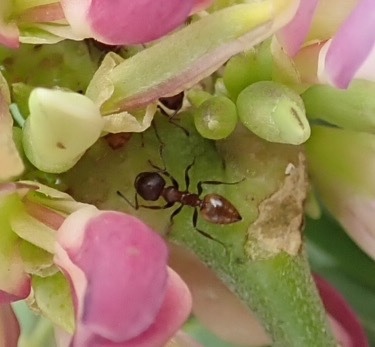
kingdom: Animalia
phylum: Arthropoda
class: Insecta
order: Hymenoptera
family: Formicidae
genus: Crematogaster
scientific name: Crematogaster castanea
